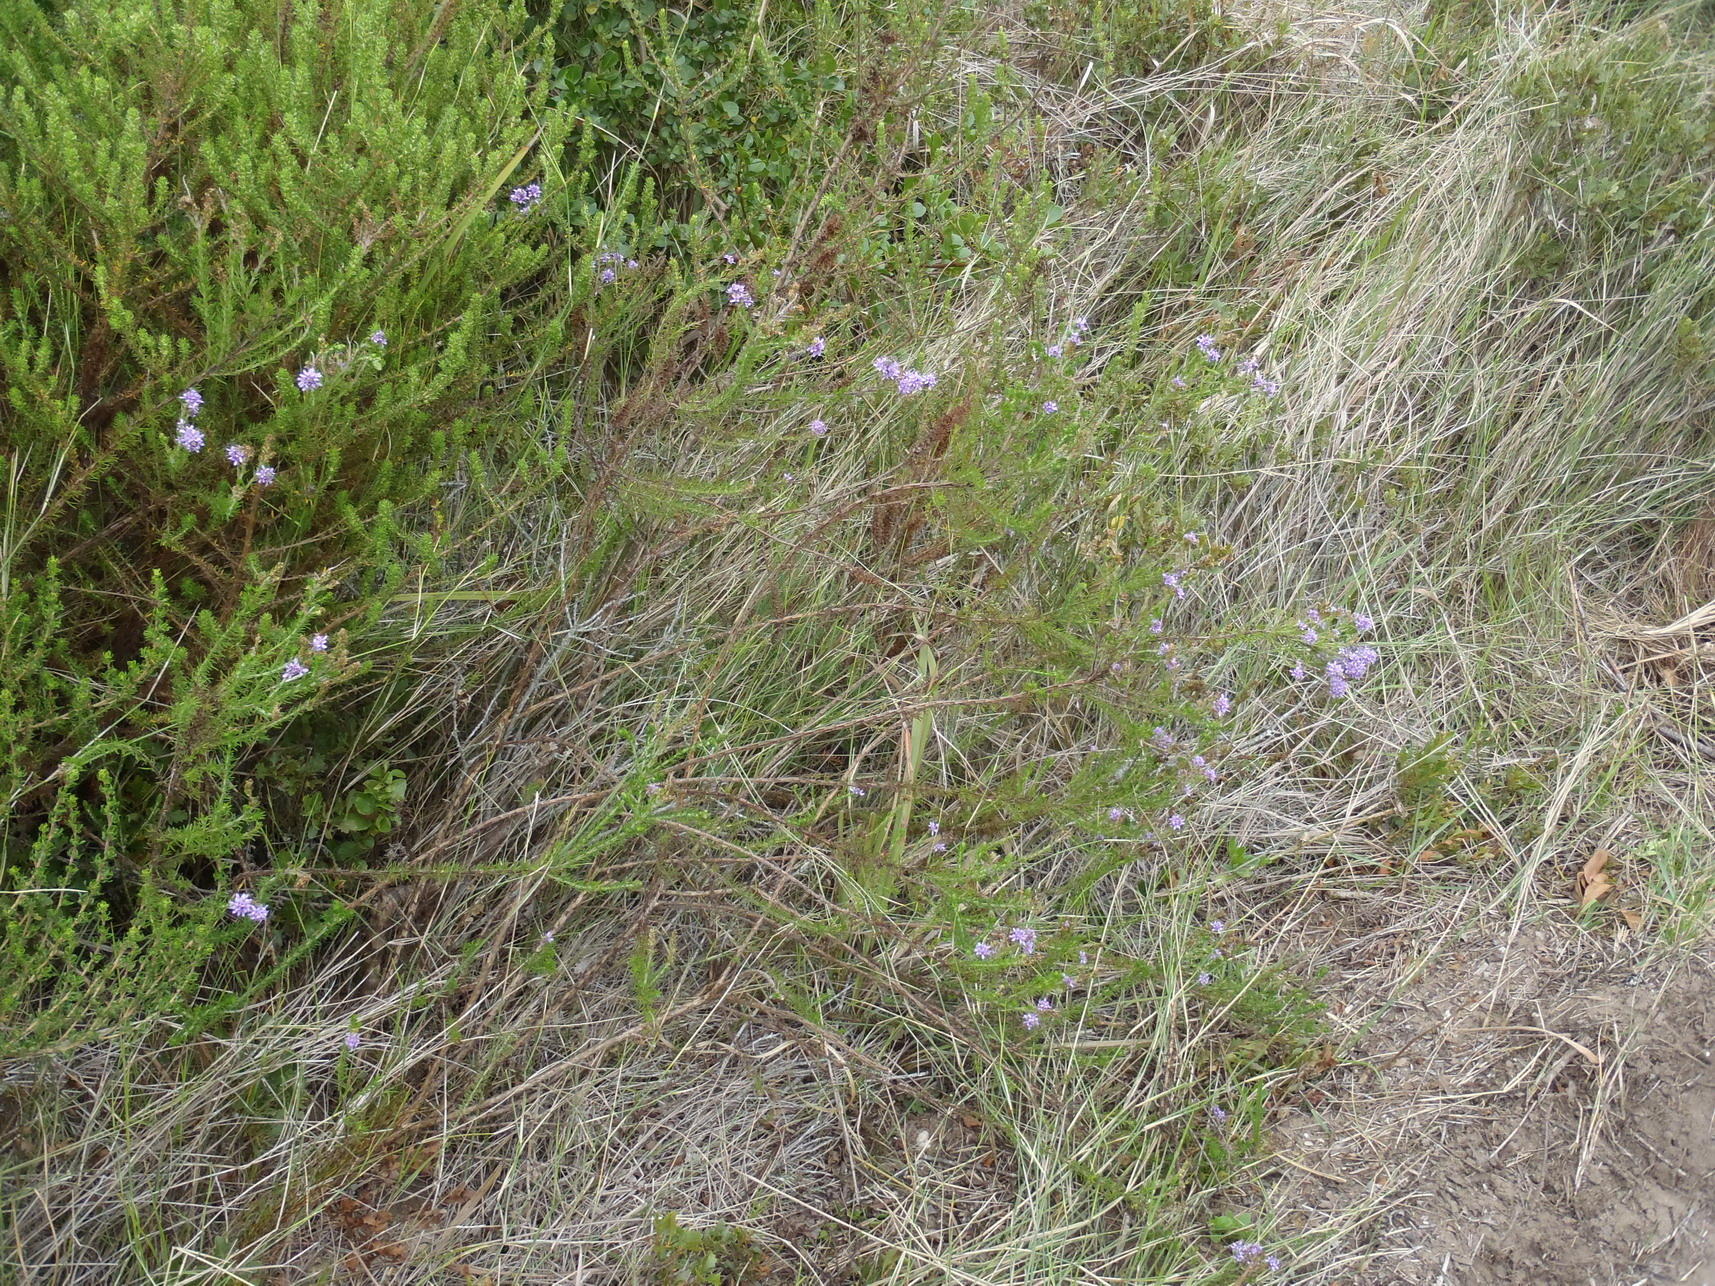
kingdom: Plantae
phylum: Tracheophyta
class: Magnoliopsida
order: Lamiales
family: Scrophulariaceae
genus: Selago
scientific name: Selago canescens
